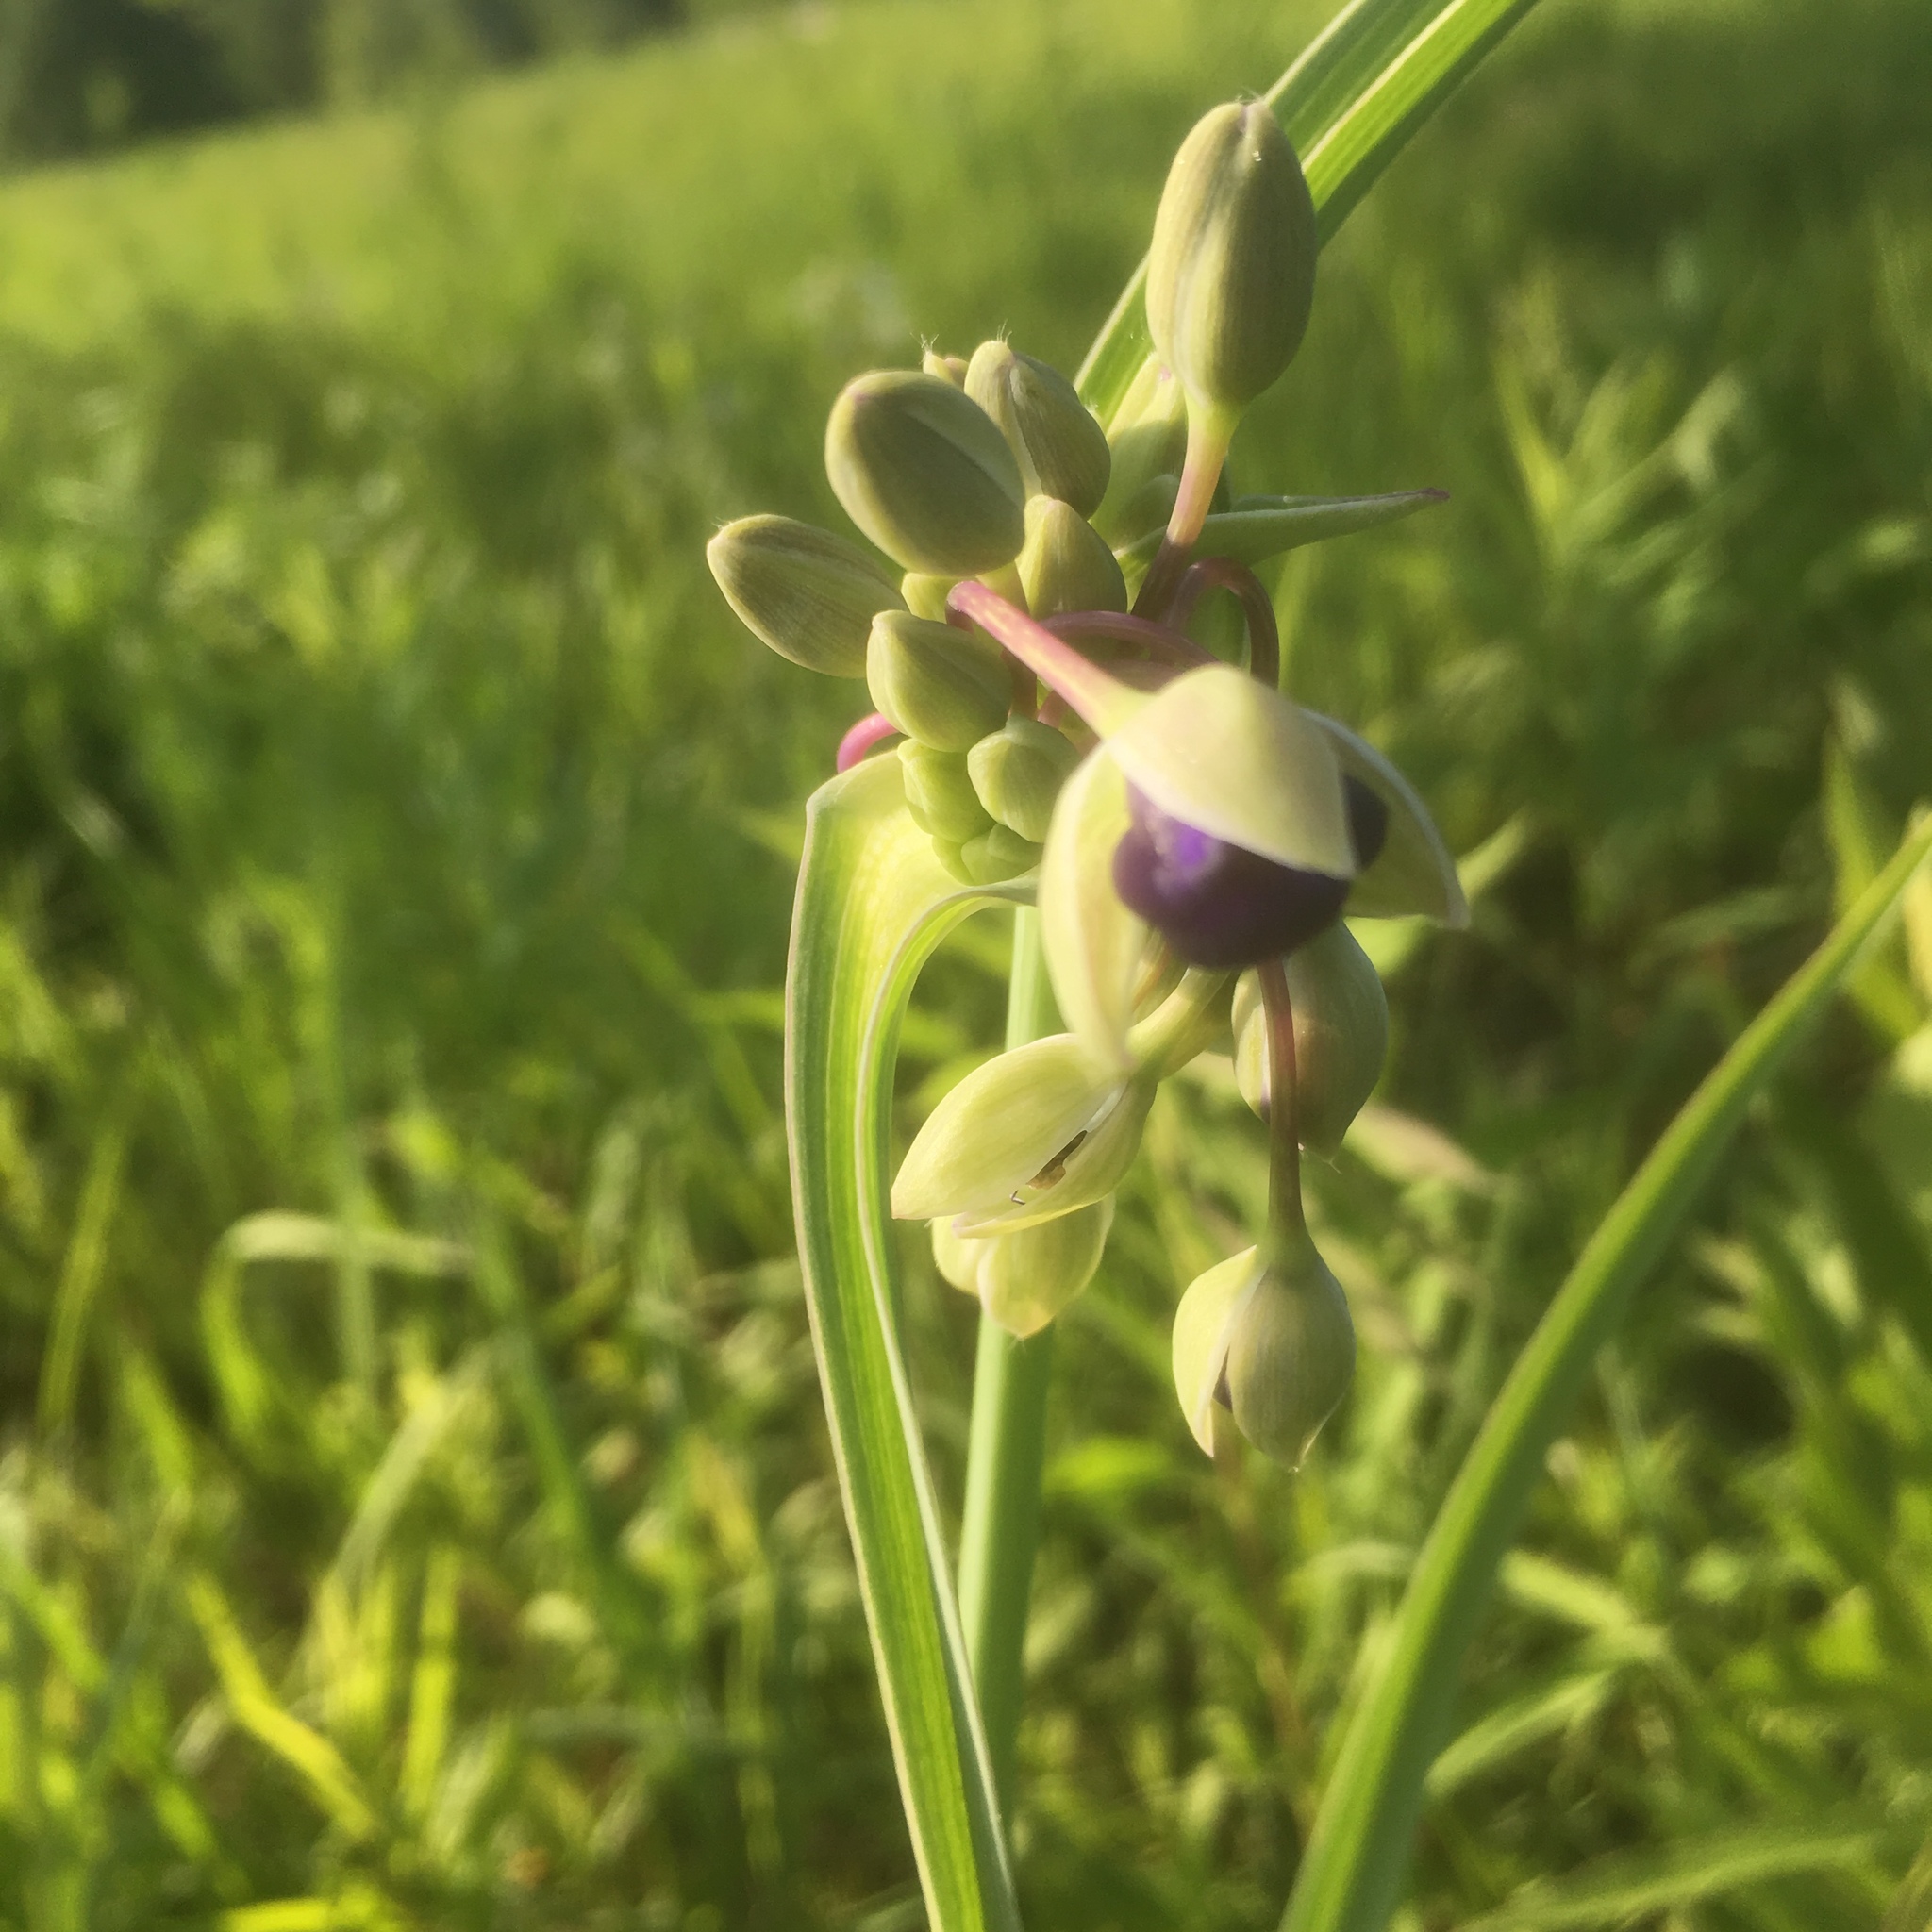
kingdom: Plantae
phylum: Tracheophyta
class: Liliopsida
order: Commelinales
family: Commelinaceae
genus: Tradescantia
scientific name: Tradescantia ohiensis
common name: Ohio spiderwort
